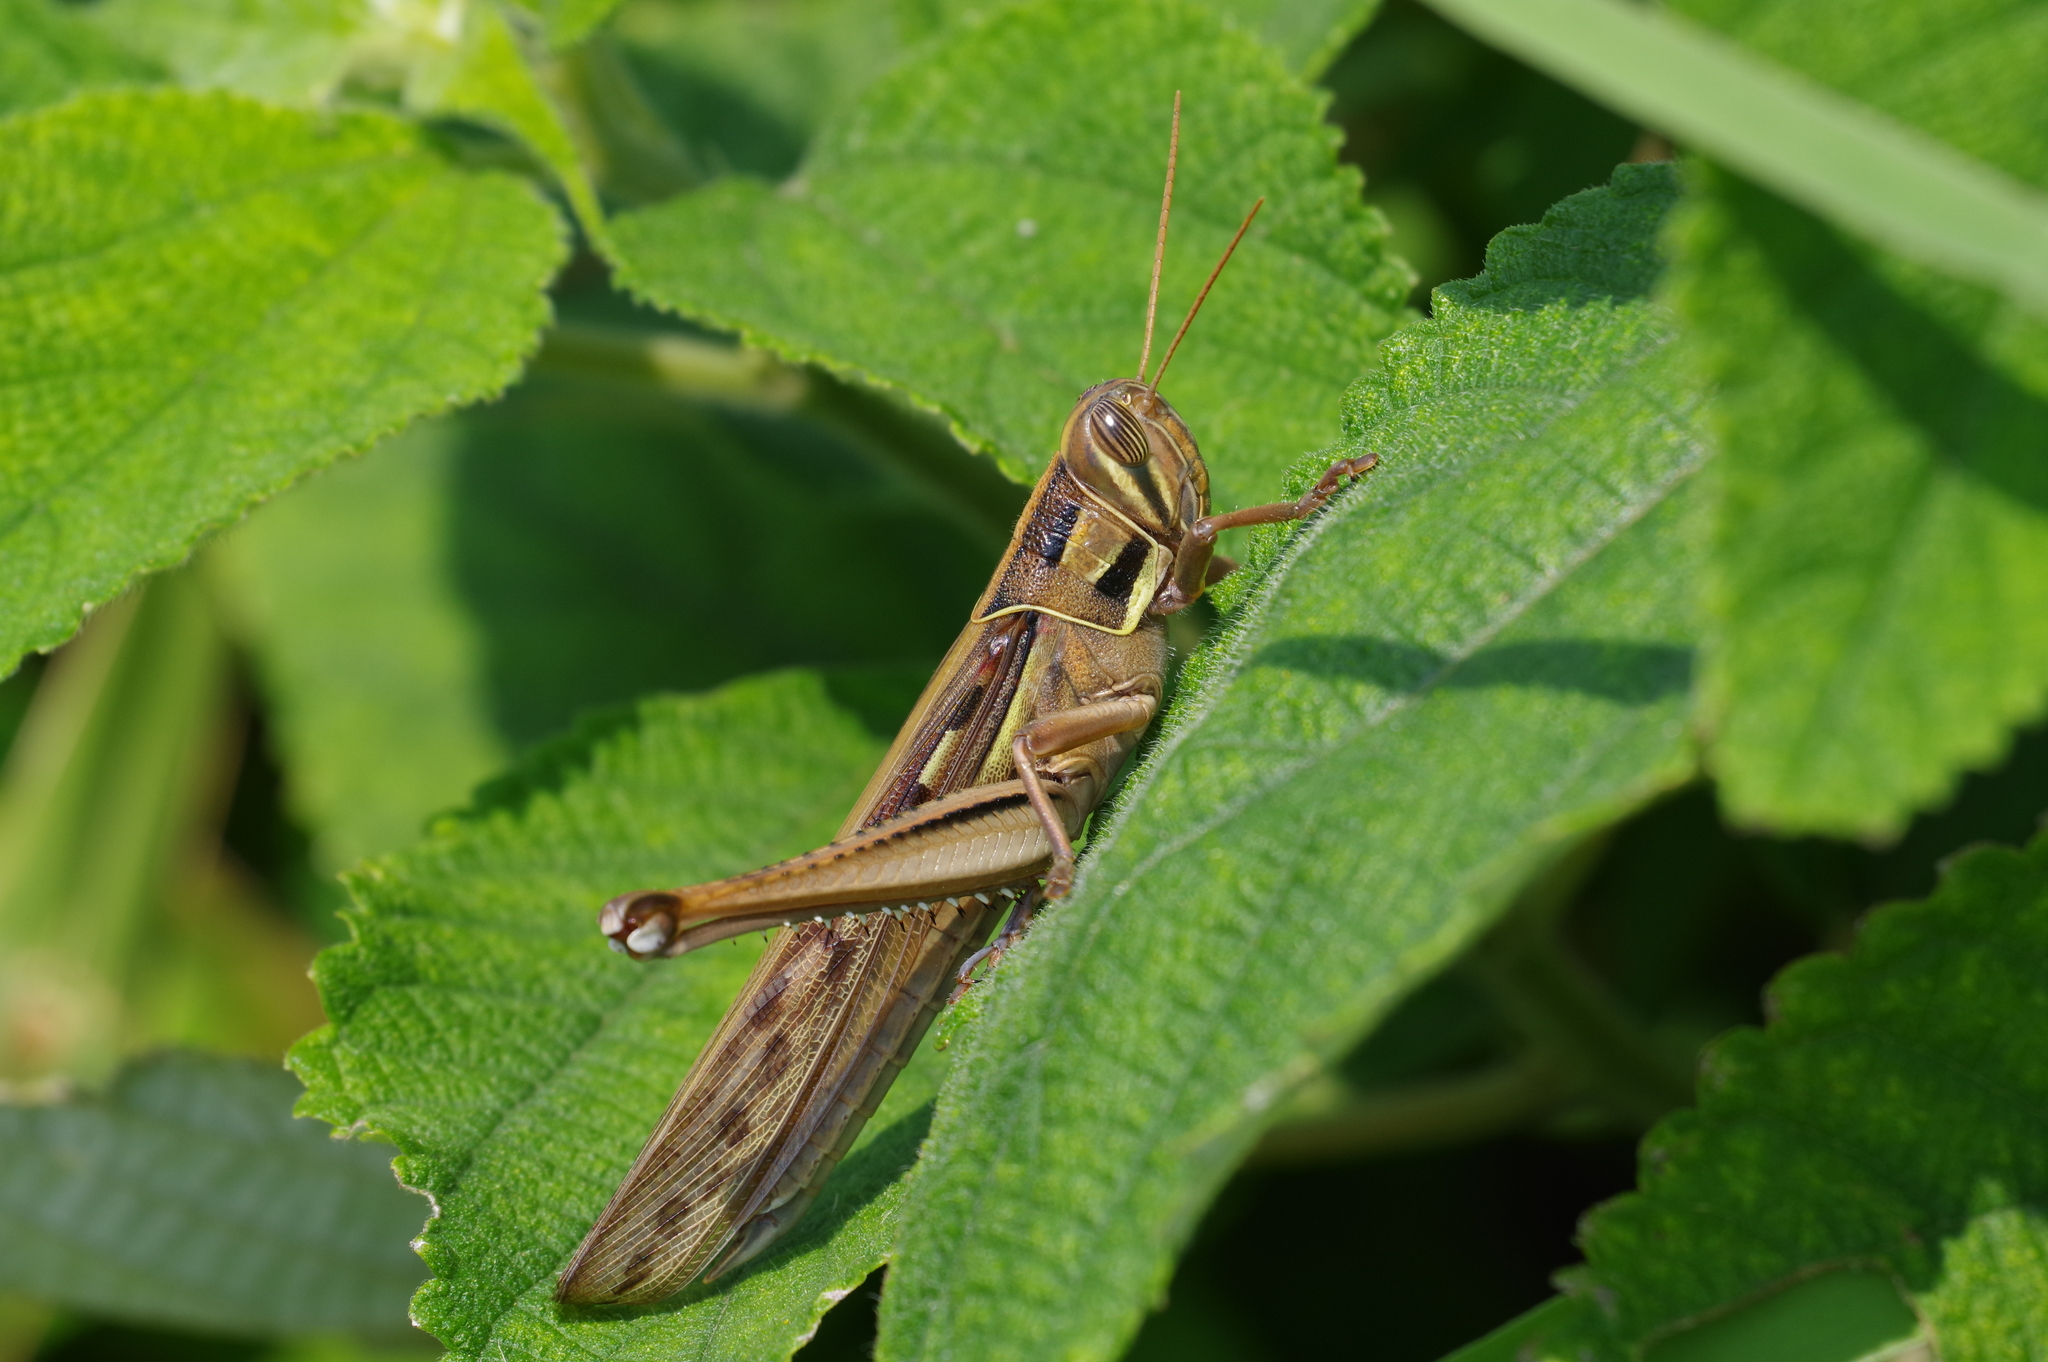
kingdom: Animalia
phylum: Arthropoda
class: Insecta
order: Orthoptera
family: Acrididae
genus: Patanga
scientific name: Patanga succincta
